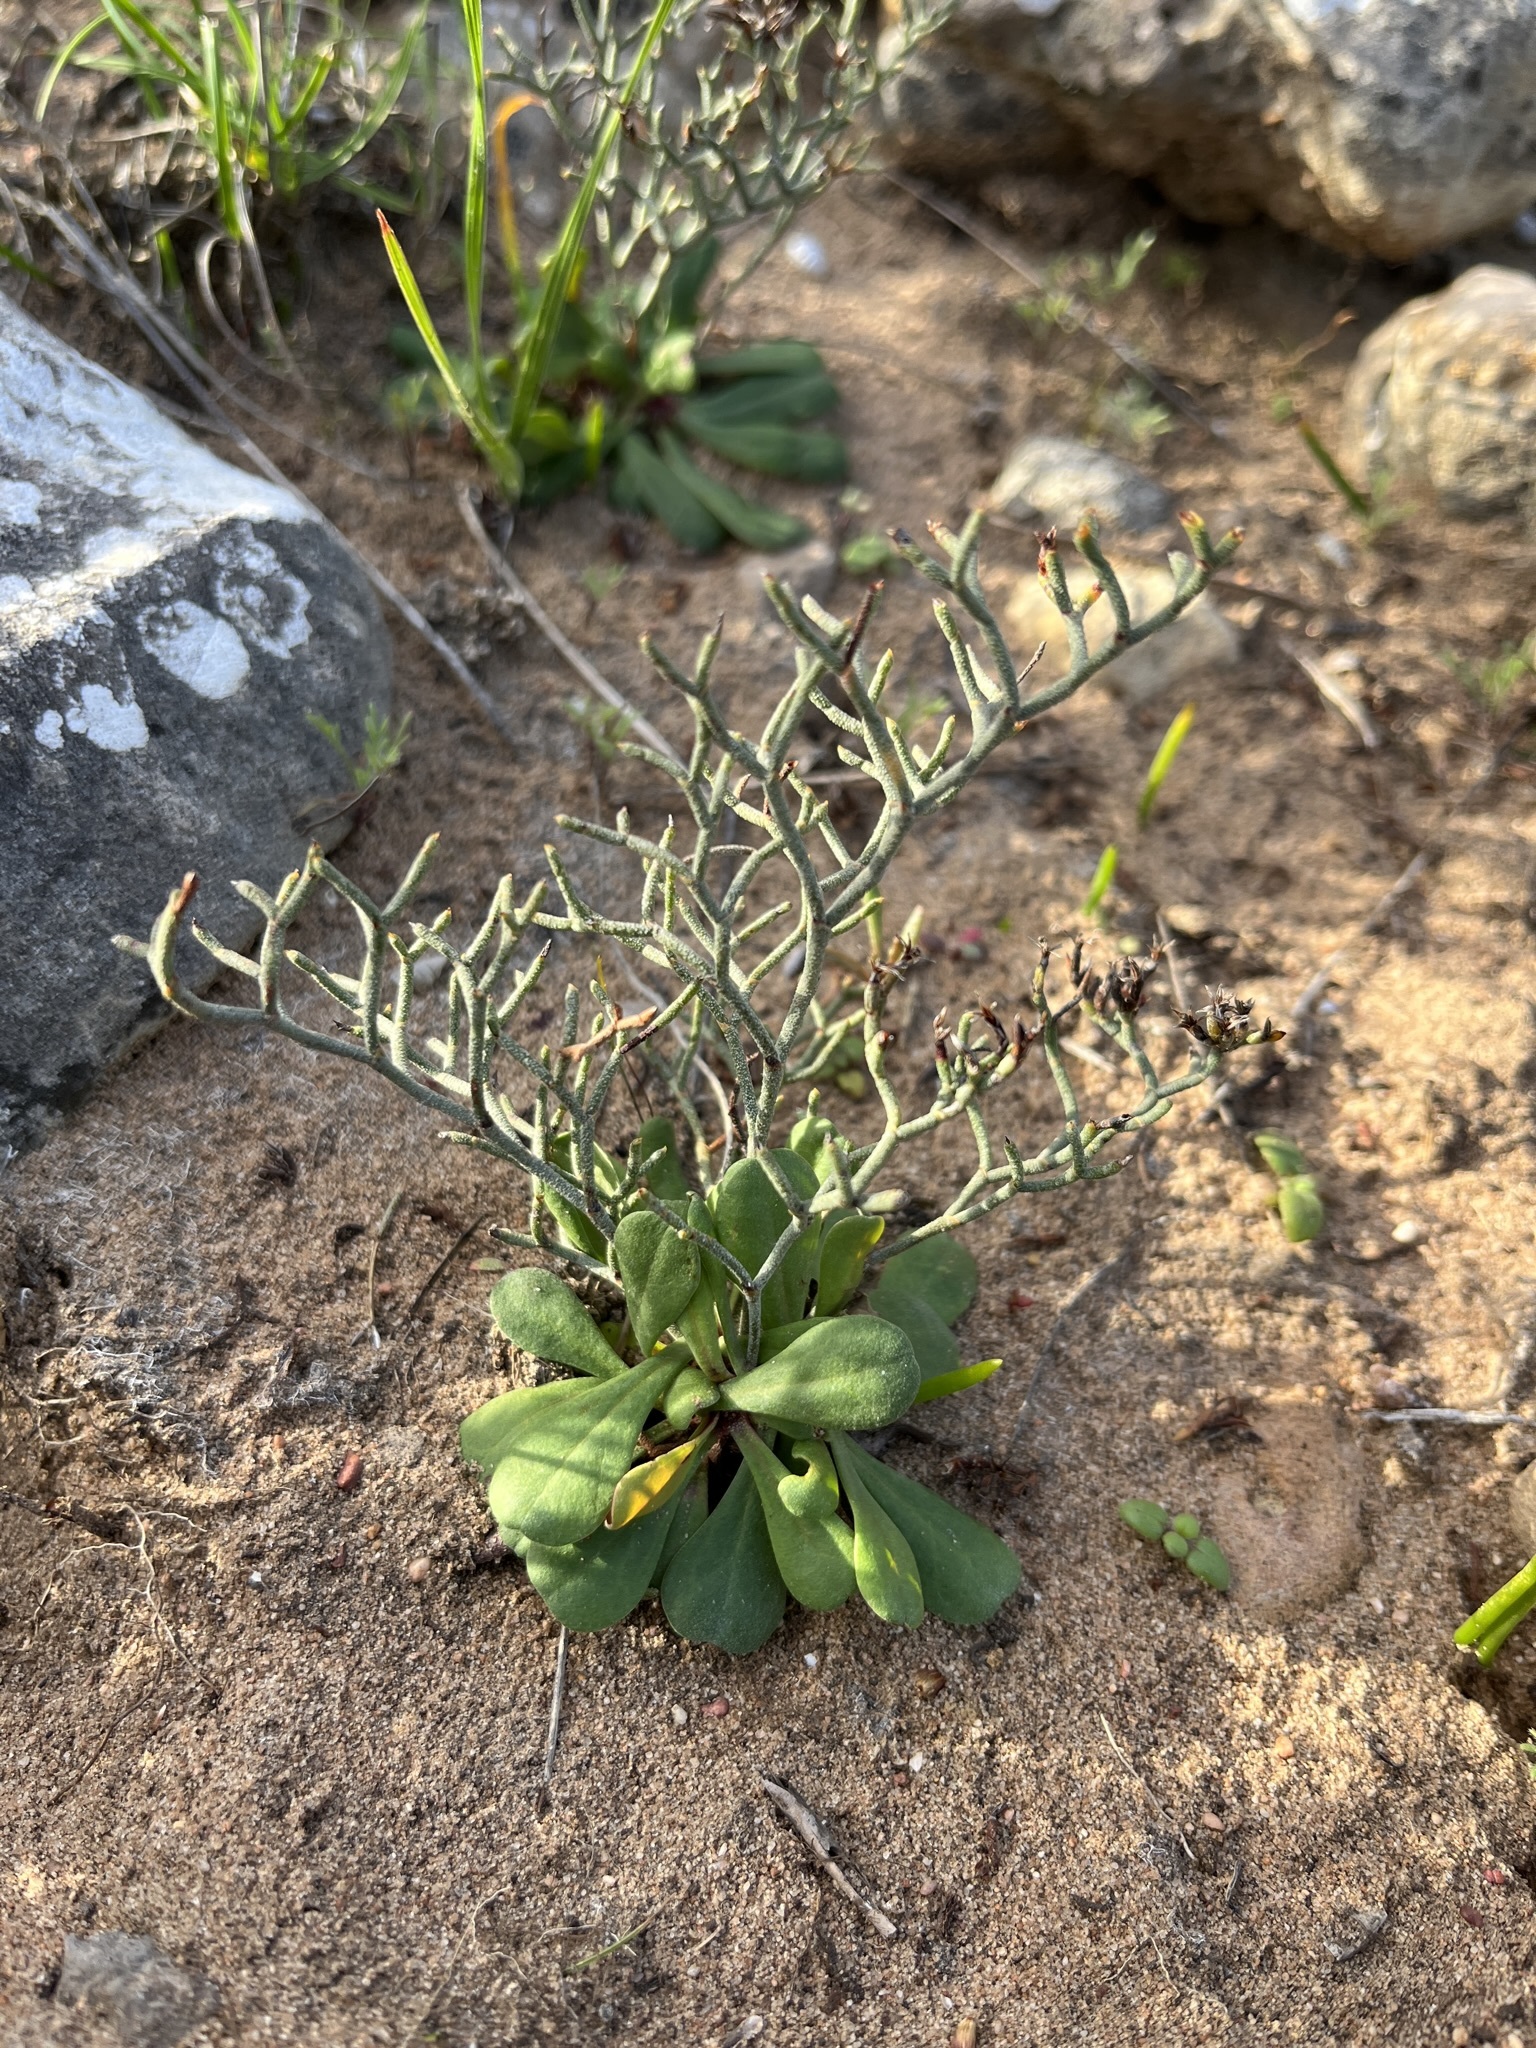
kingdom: Plantae
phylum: Tracheophyta
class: Magnoliopsida
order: Caryophyllales
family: Plumbaginaceae
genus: Limonium
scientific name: Limonium scabrum
